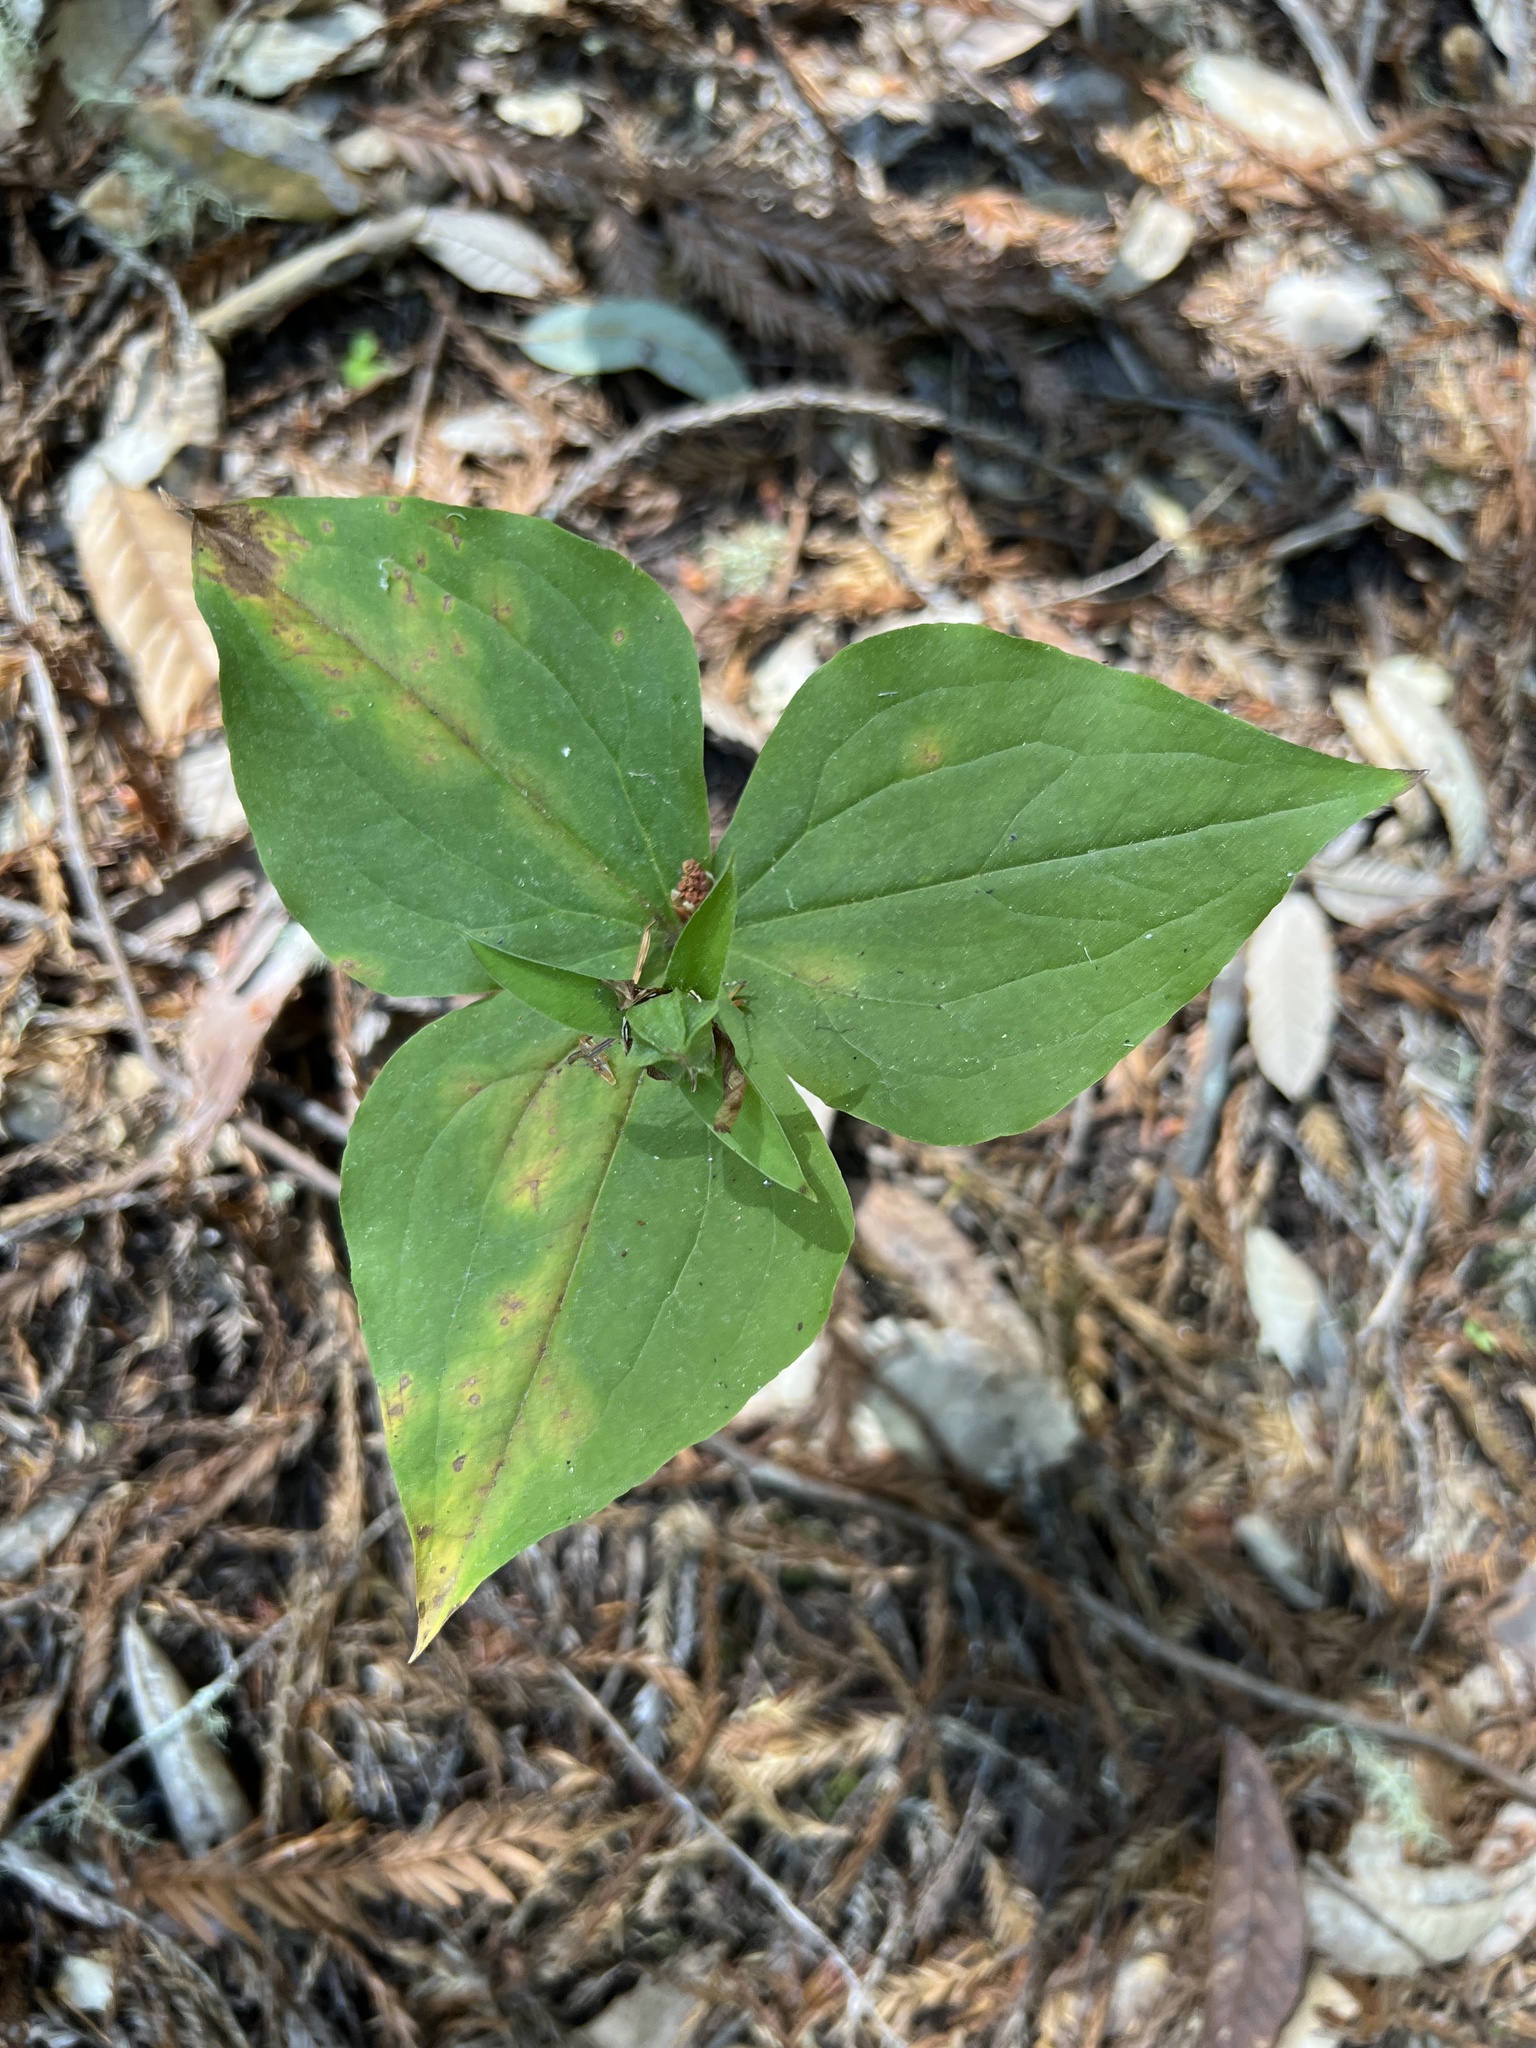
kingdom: Plantae
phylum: Tracheophyta
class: Liliopsida
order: Liliales
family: Melanthiaceae
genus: Trillium
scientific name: Trillium ovatum
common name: Pacific trillium
